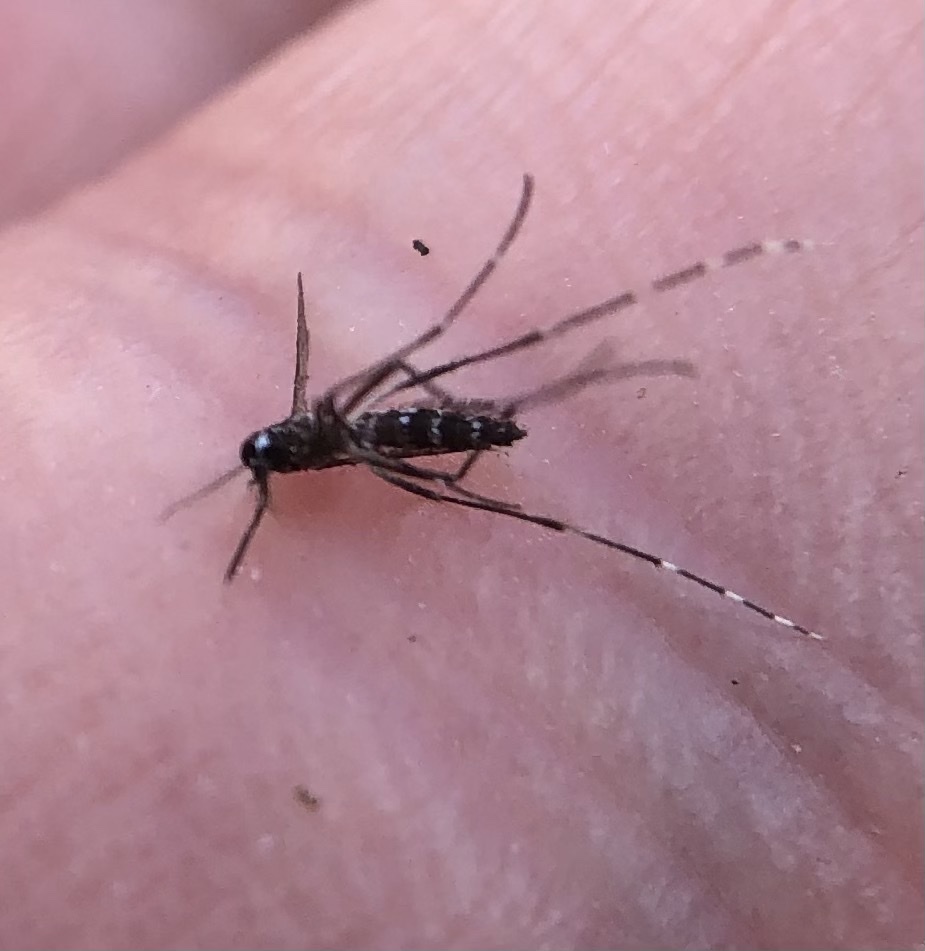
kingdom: Animalia
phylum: Arthropoda
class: Insecta
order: Diptera
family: Culicidae
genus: Aedes
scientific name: Aedes albopictus
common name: Tiger mosquito
